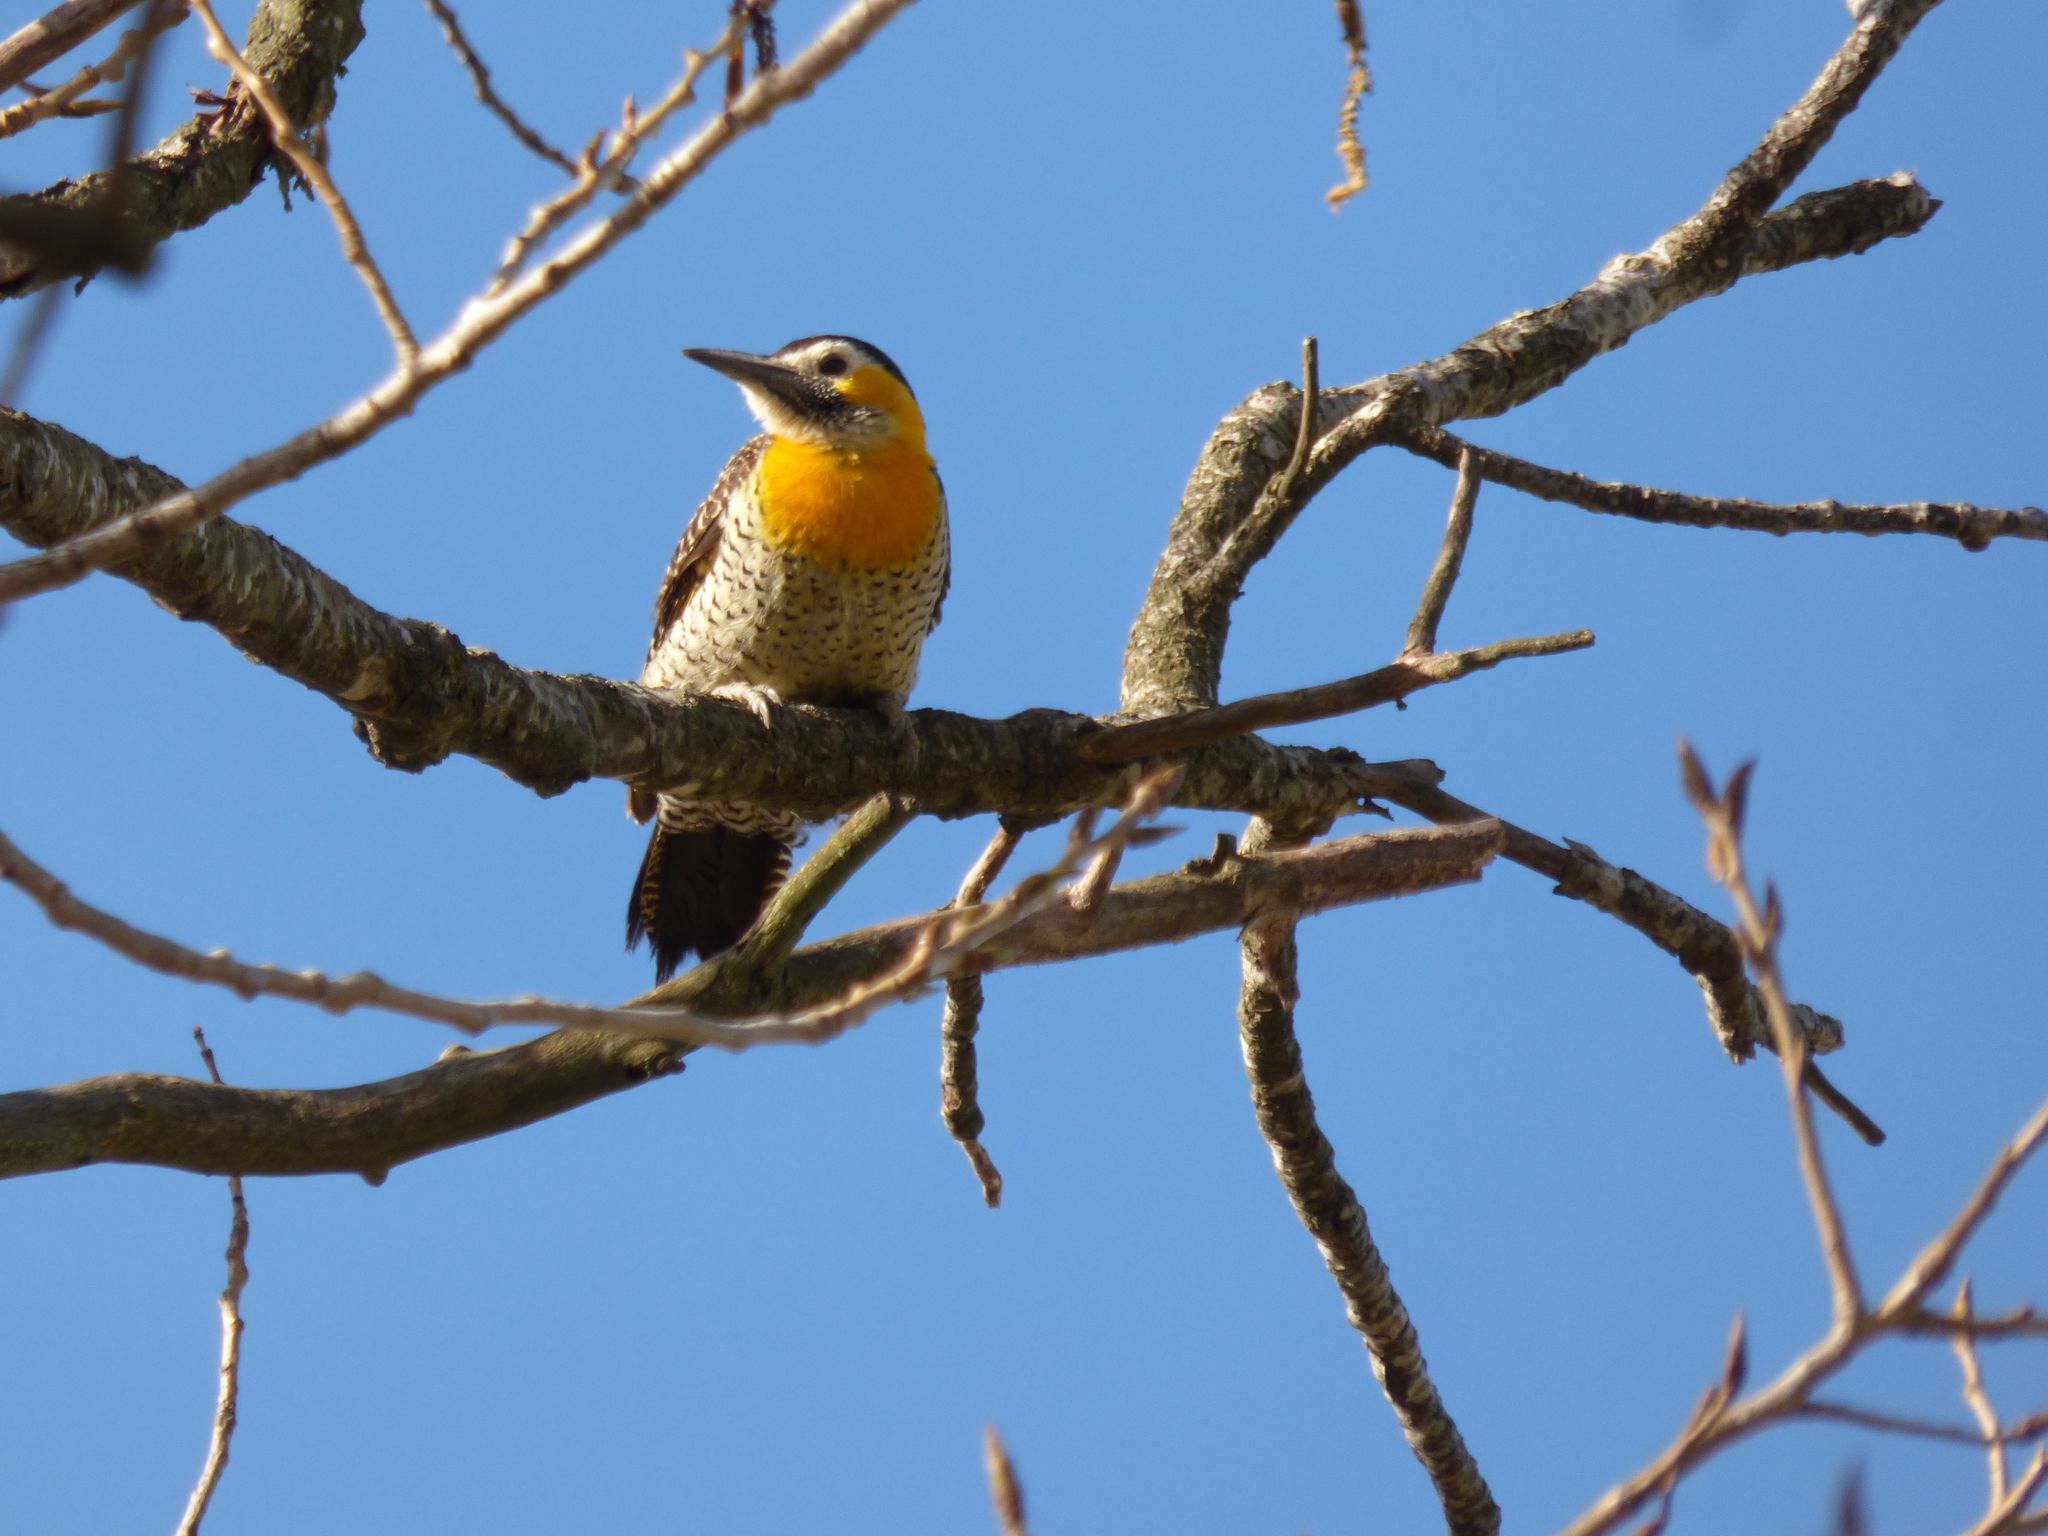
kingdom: Animalia
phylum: Chordata
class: Aves
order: Piciformes
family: Picidae
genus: Colaptes
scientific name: Colaptes campestris
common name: Campo flicker
